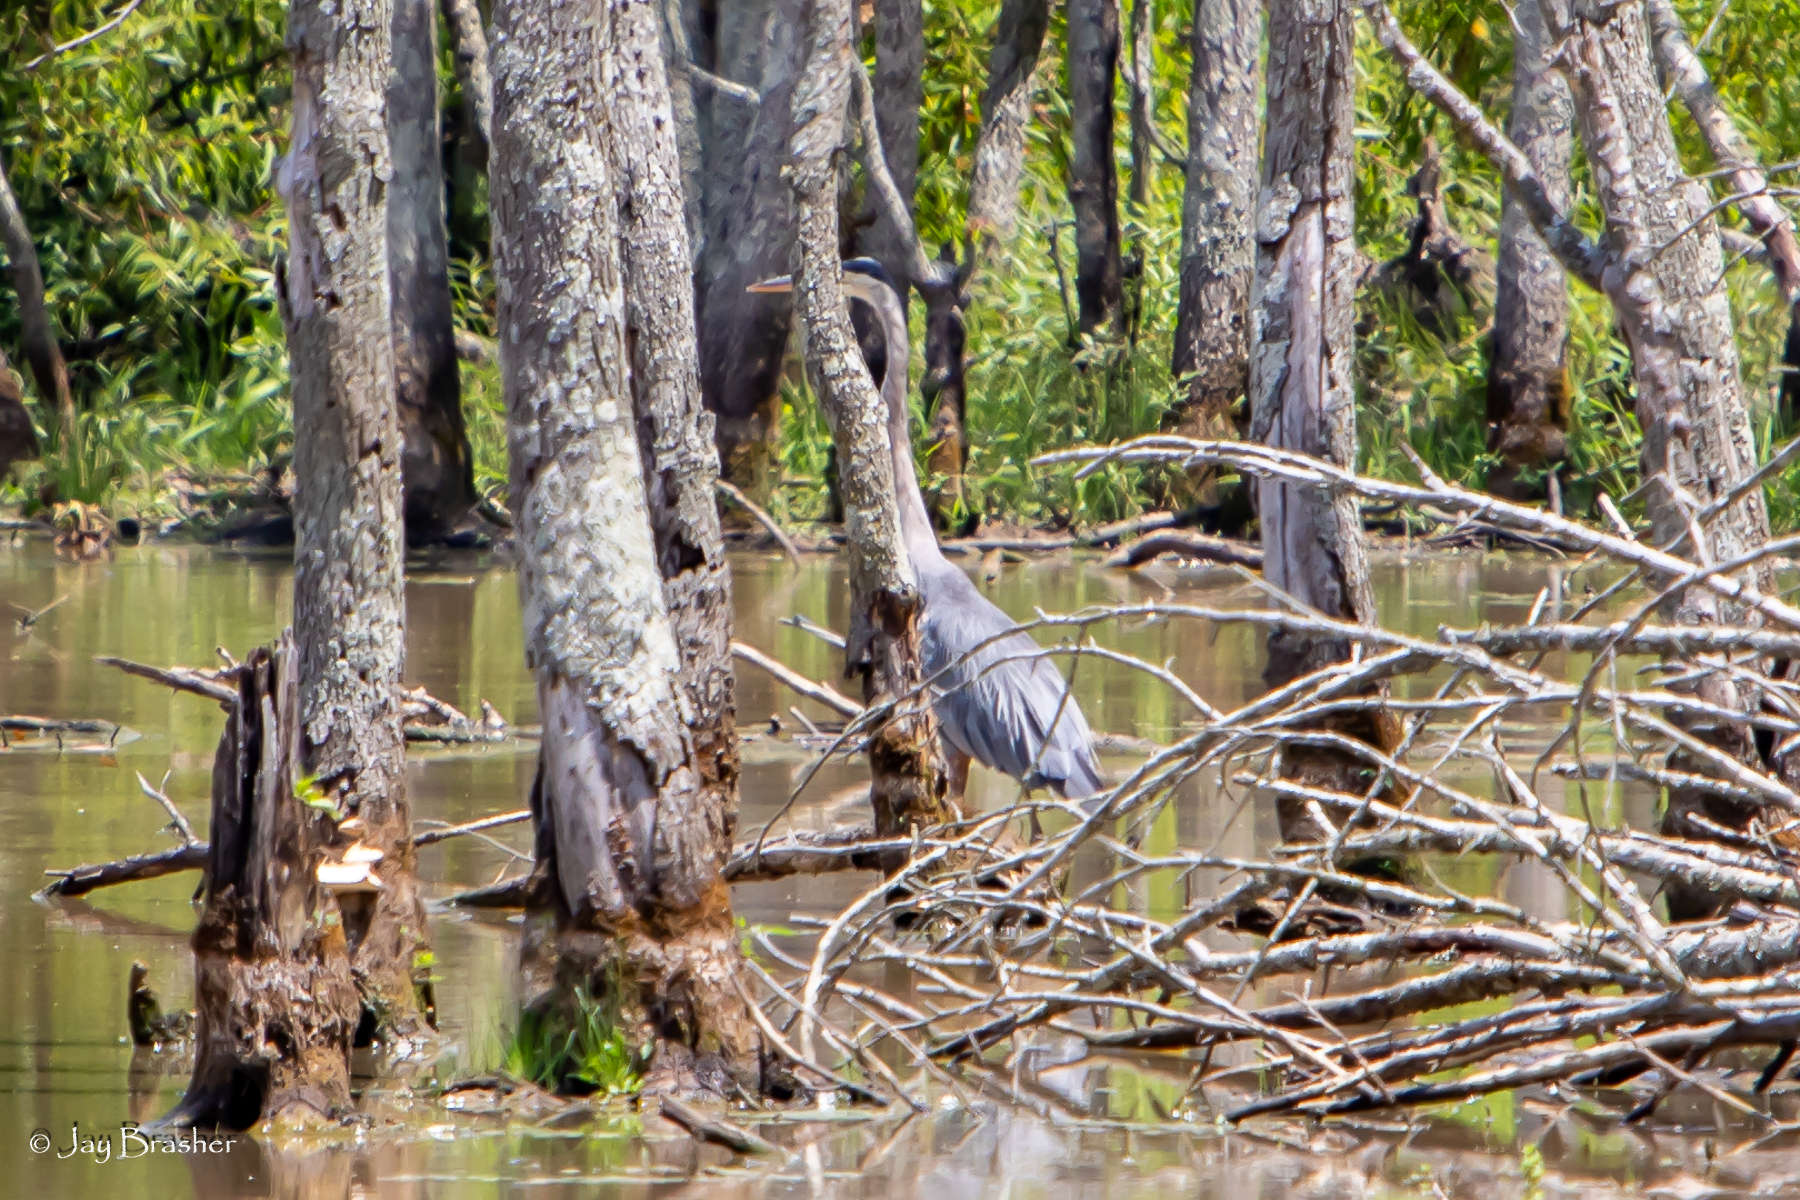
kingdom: Animalia
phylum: Chordata
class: Aves
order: Pelecaniformes
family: Ardeidae
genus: Ardea
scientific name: Ardea herodias
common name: Great blue heron
